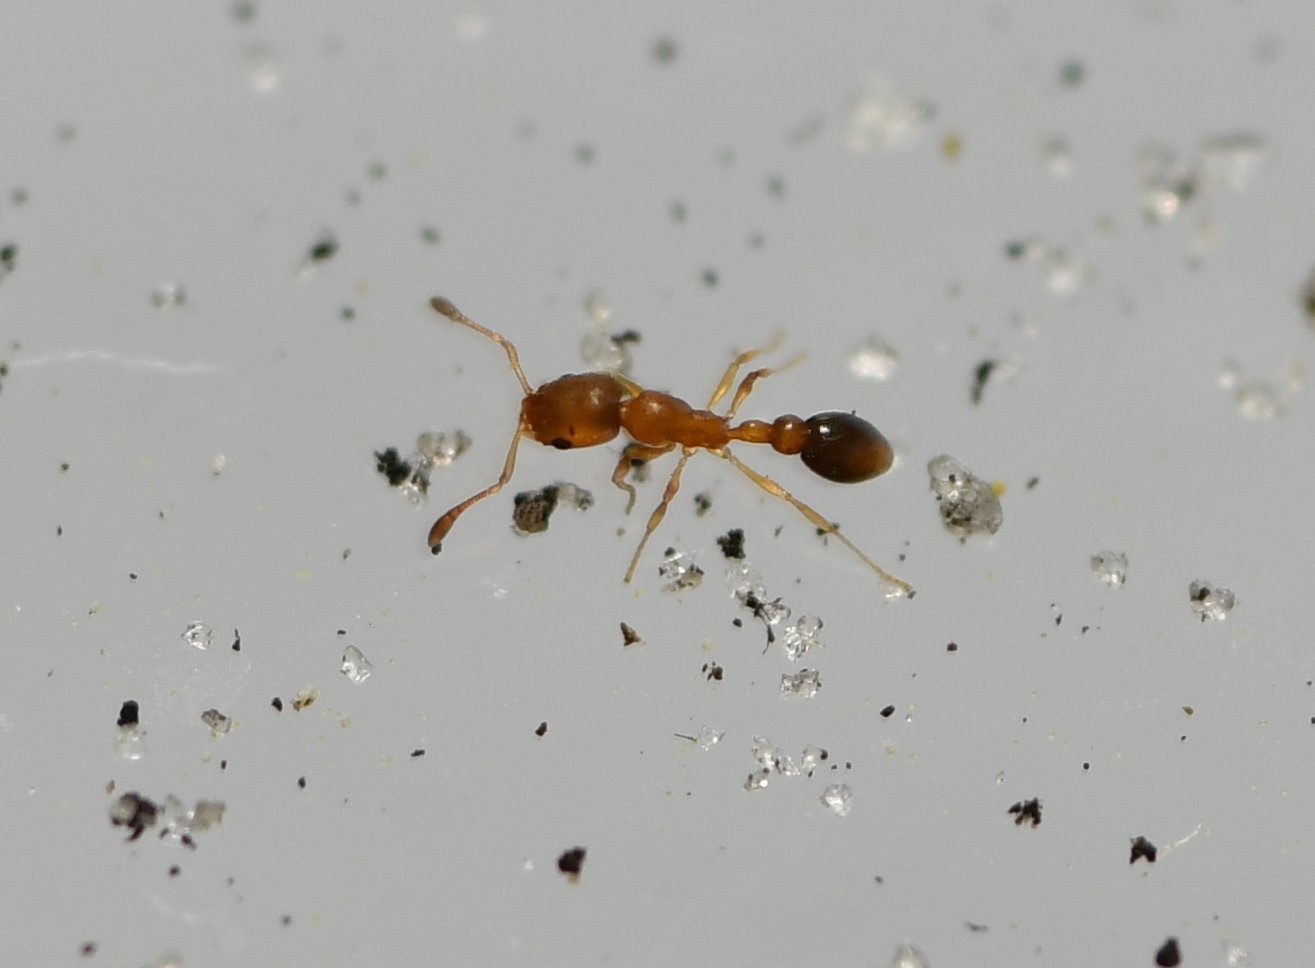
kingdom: Animalia
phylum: Arthropoda
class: Insecta
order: Hymenoptera
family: Formicidae
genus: Cardiocondyla
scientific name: Cardiocondyla emeryi
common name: Ant
